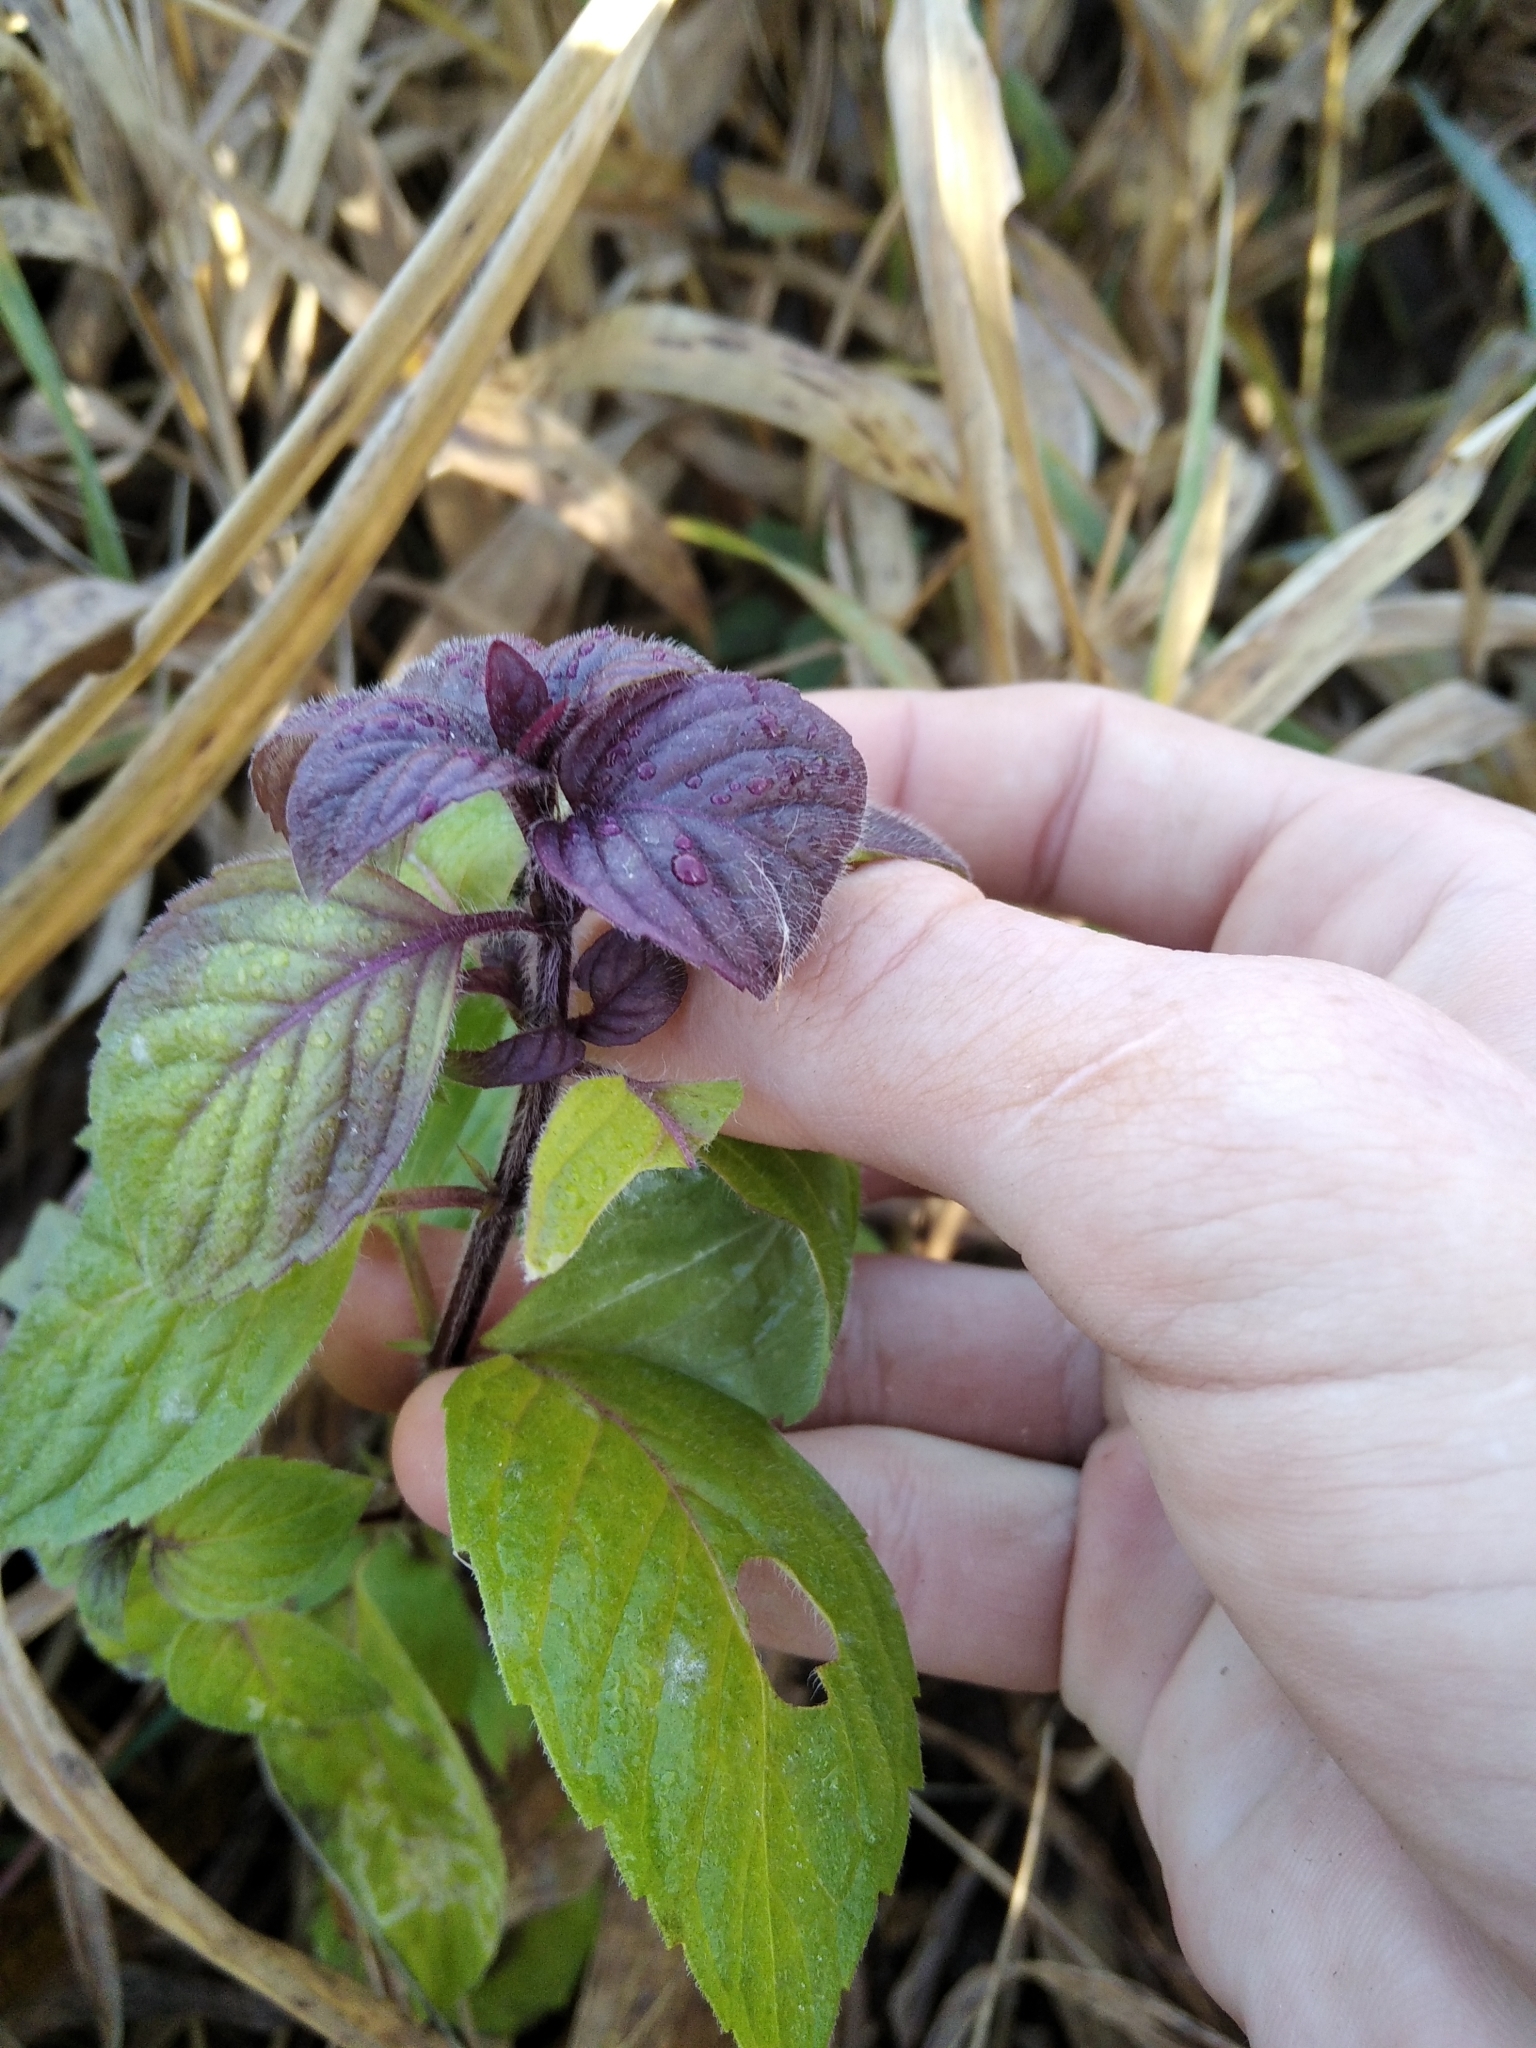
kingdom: Plantae
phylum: Tracheophyta
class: Magnoliopsida
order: Lamiales
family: Lamiaceae
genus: Mentha
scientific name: Mentha arvensis
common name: Corn mint
